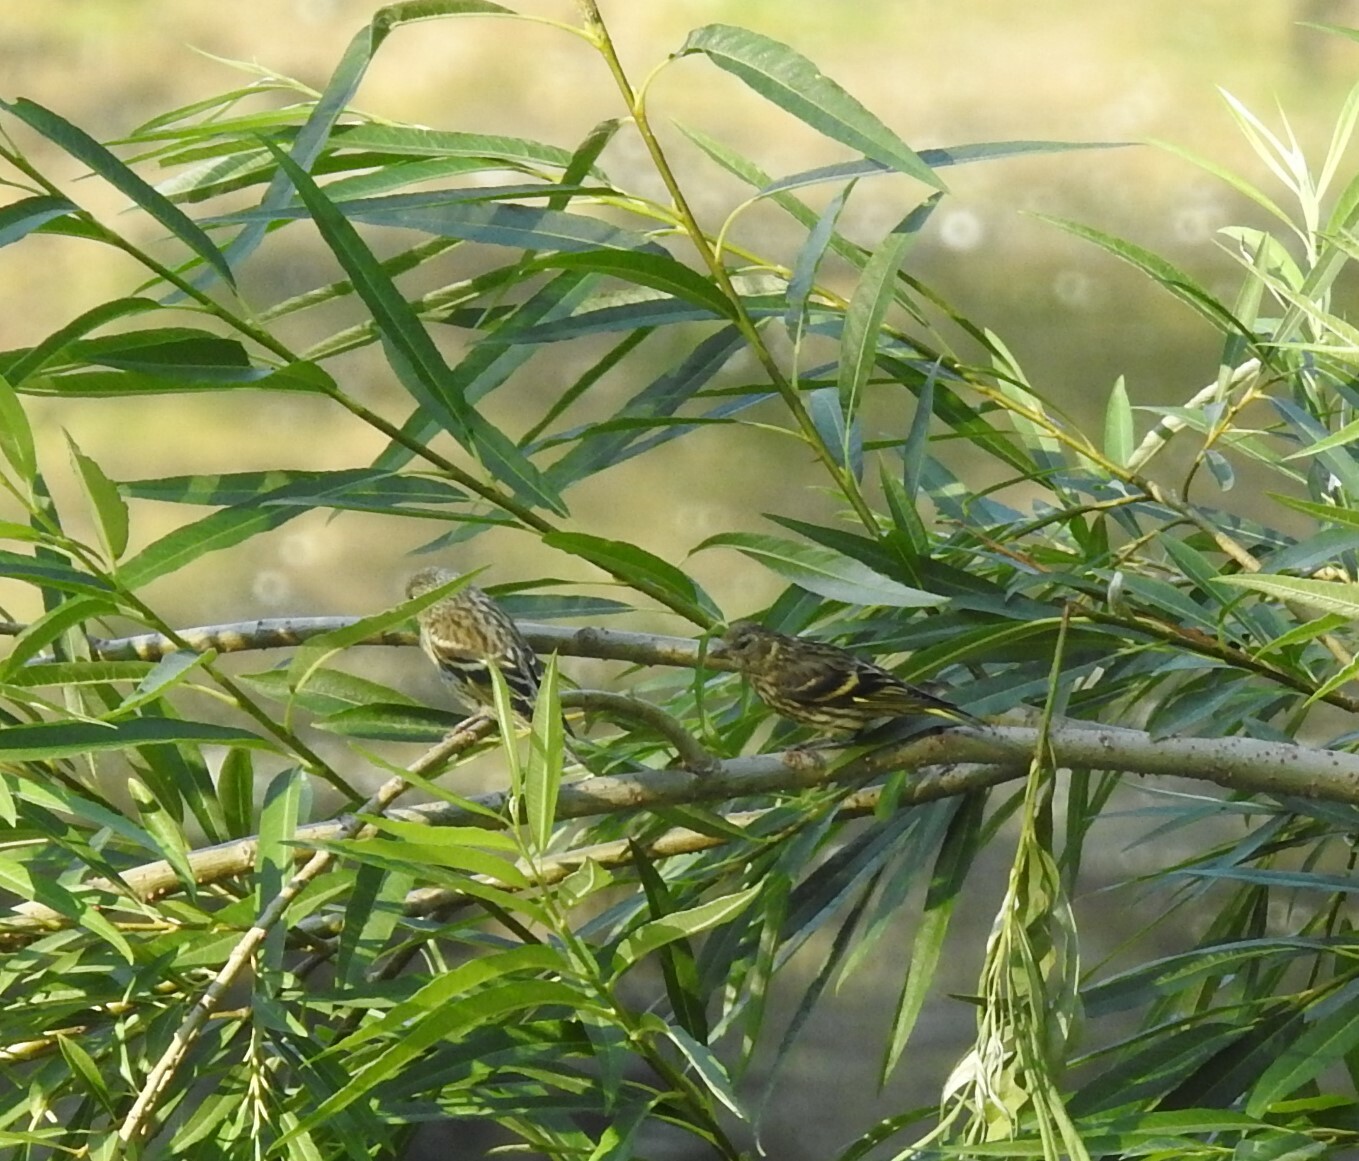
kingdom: Animalia
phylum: Chordata
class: Aves
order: Passeriformes
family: Fringillidae
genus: Spinus
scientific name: Spinus spinus
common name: Eurasian siskin
